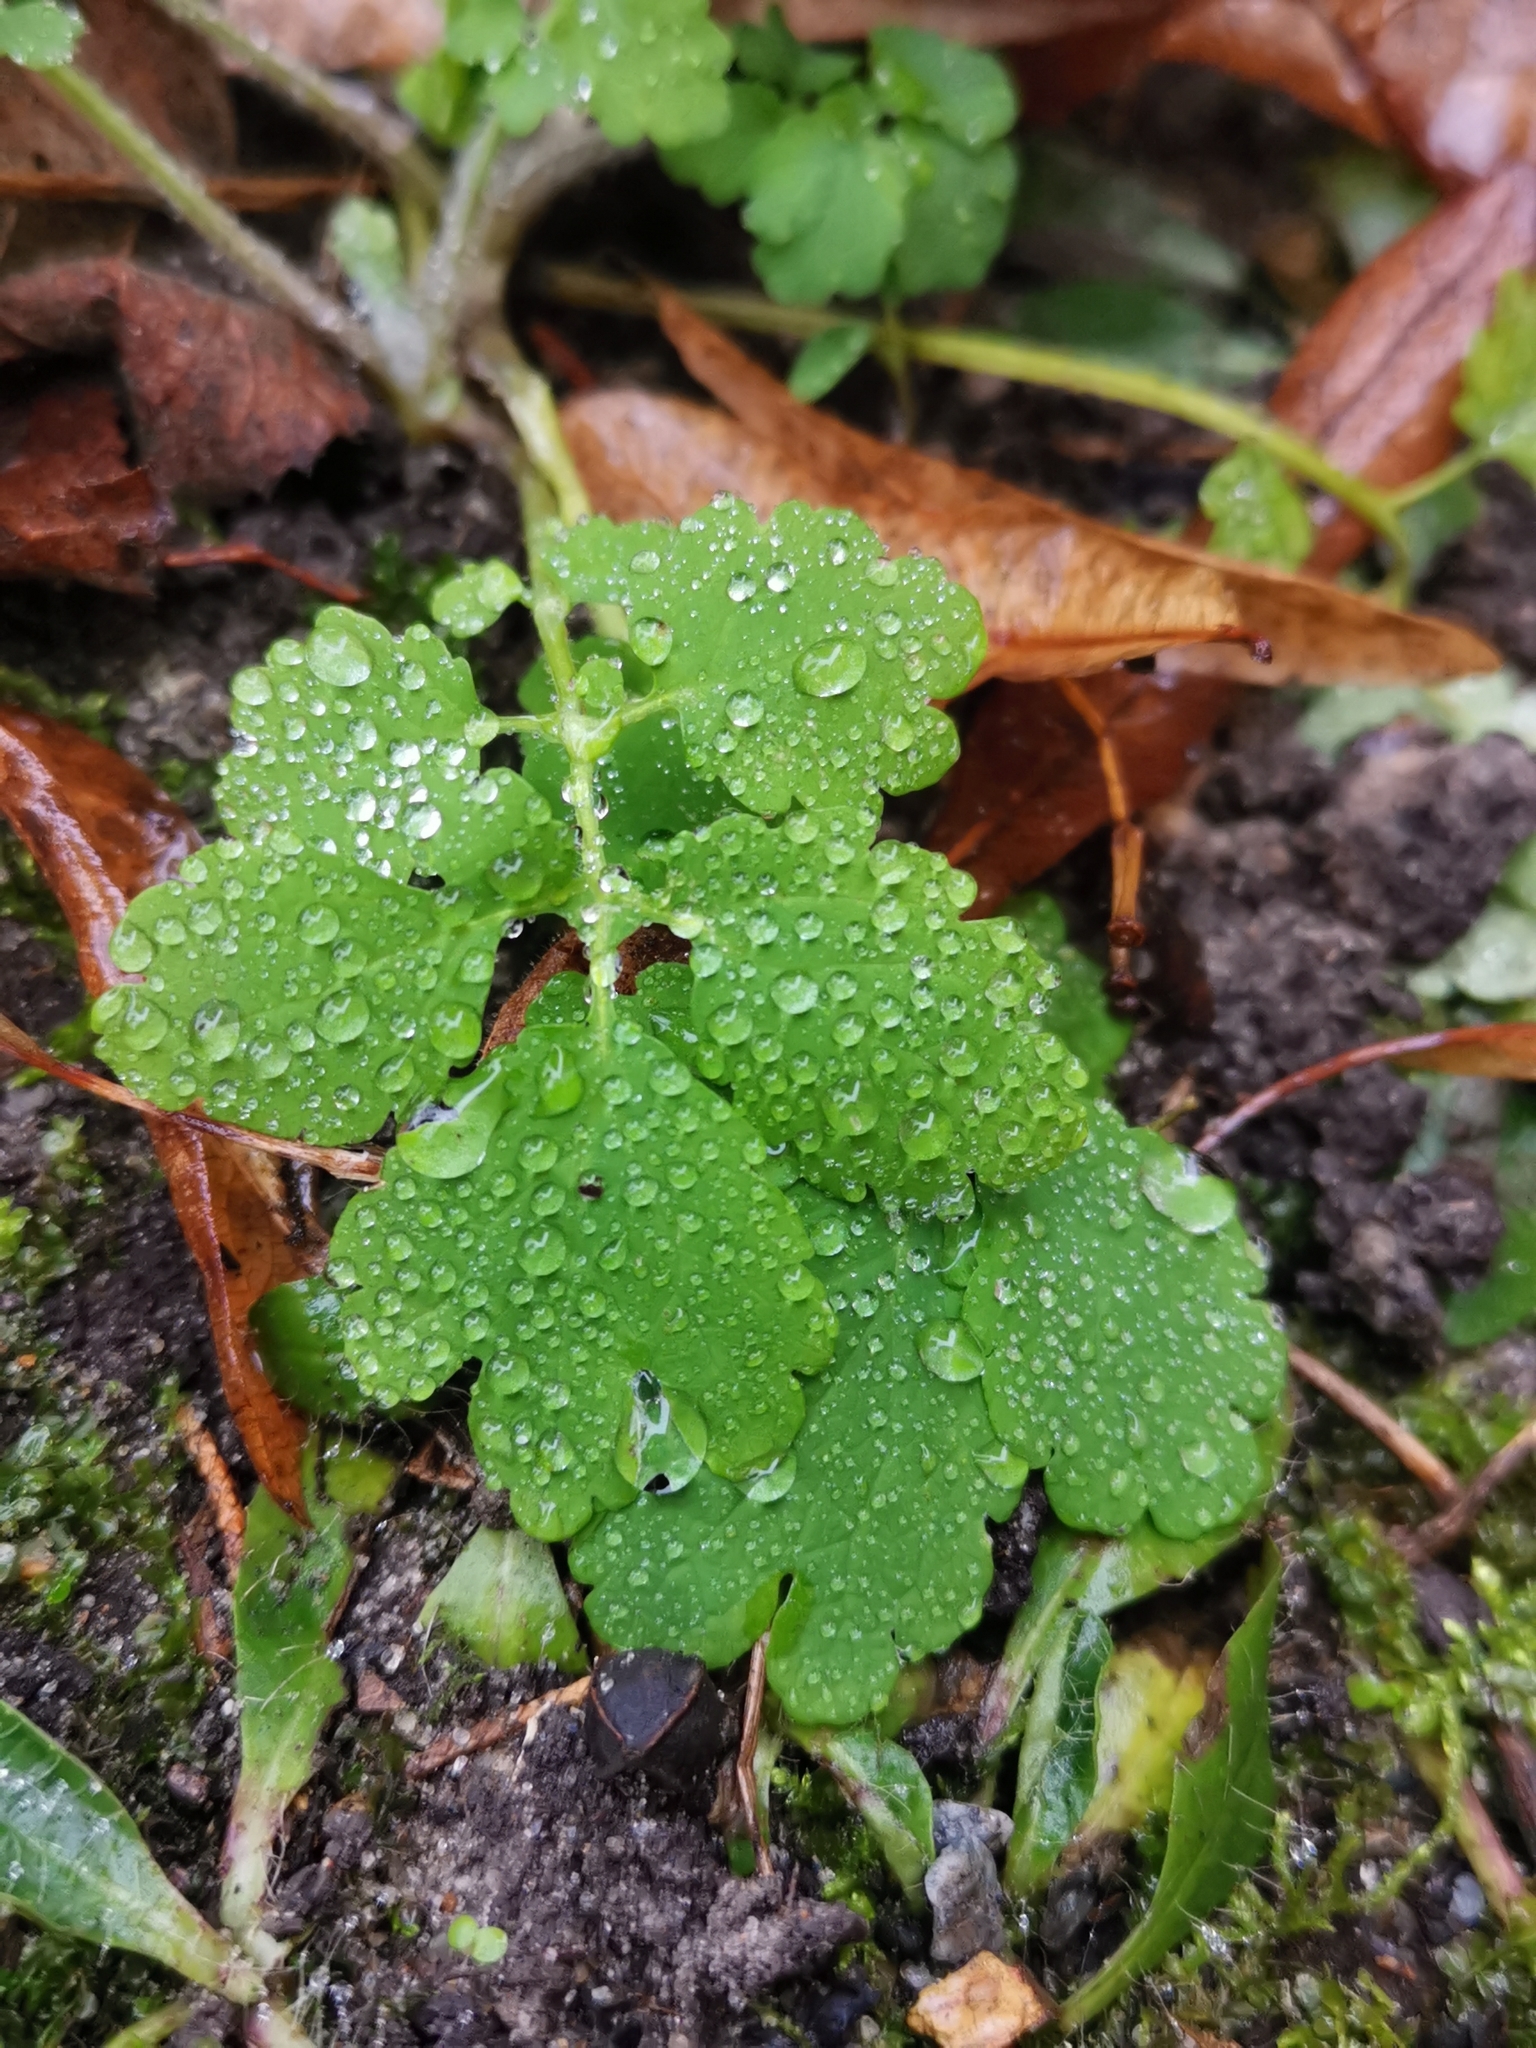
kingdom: Plantae
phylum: Tracheophyta
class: Magnoliopsida
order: Ranunculales
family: Papaveraceae
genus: Chelidonium
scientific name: Chelidonium majus
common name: Greater celandine
